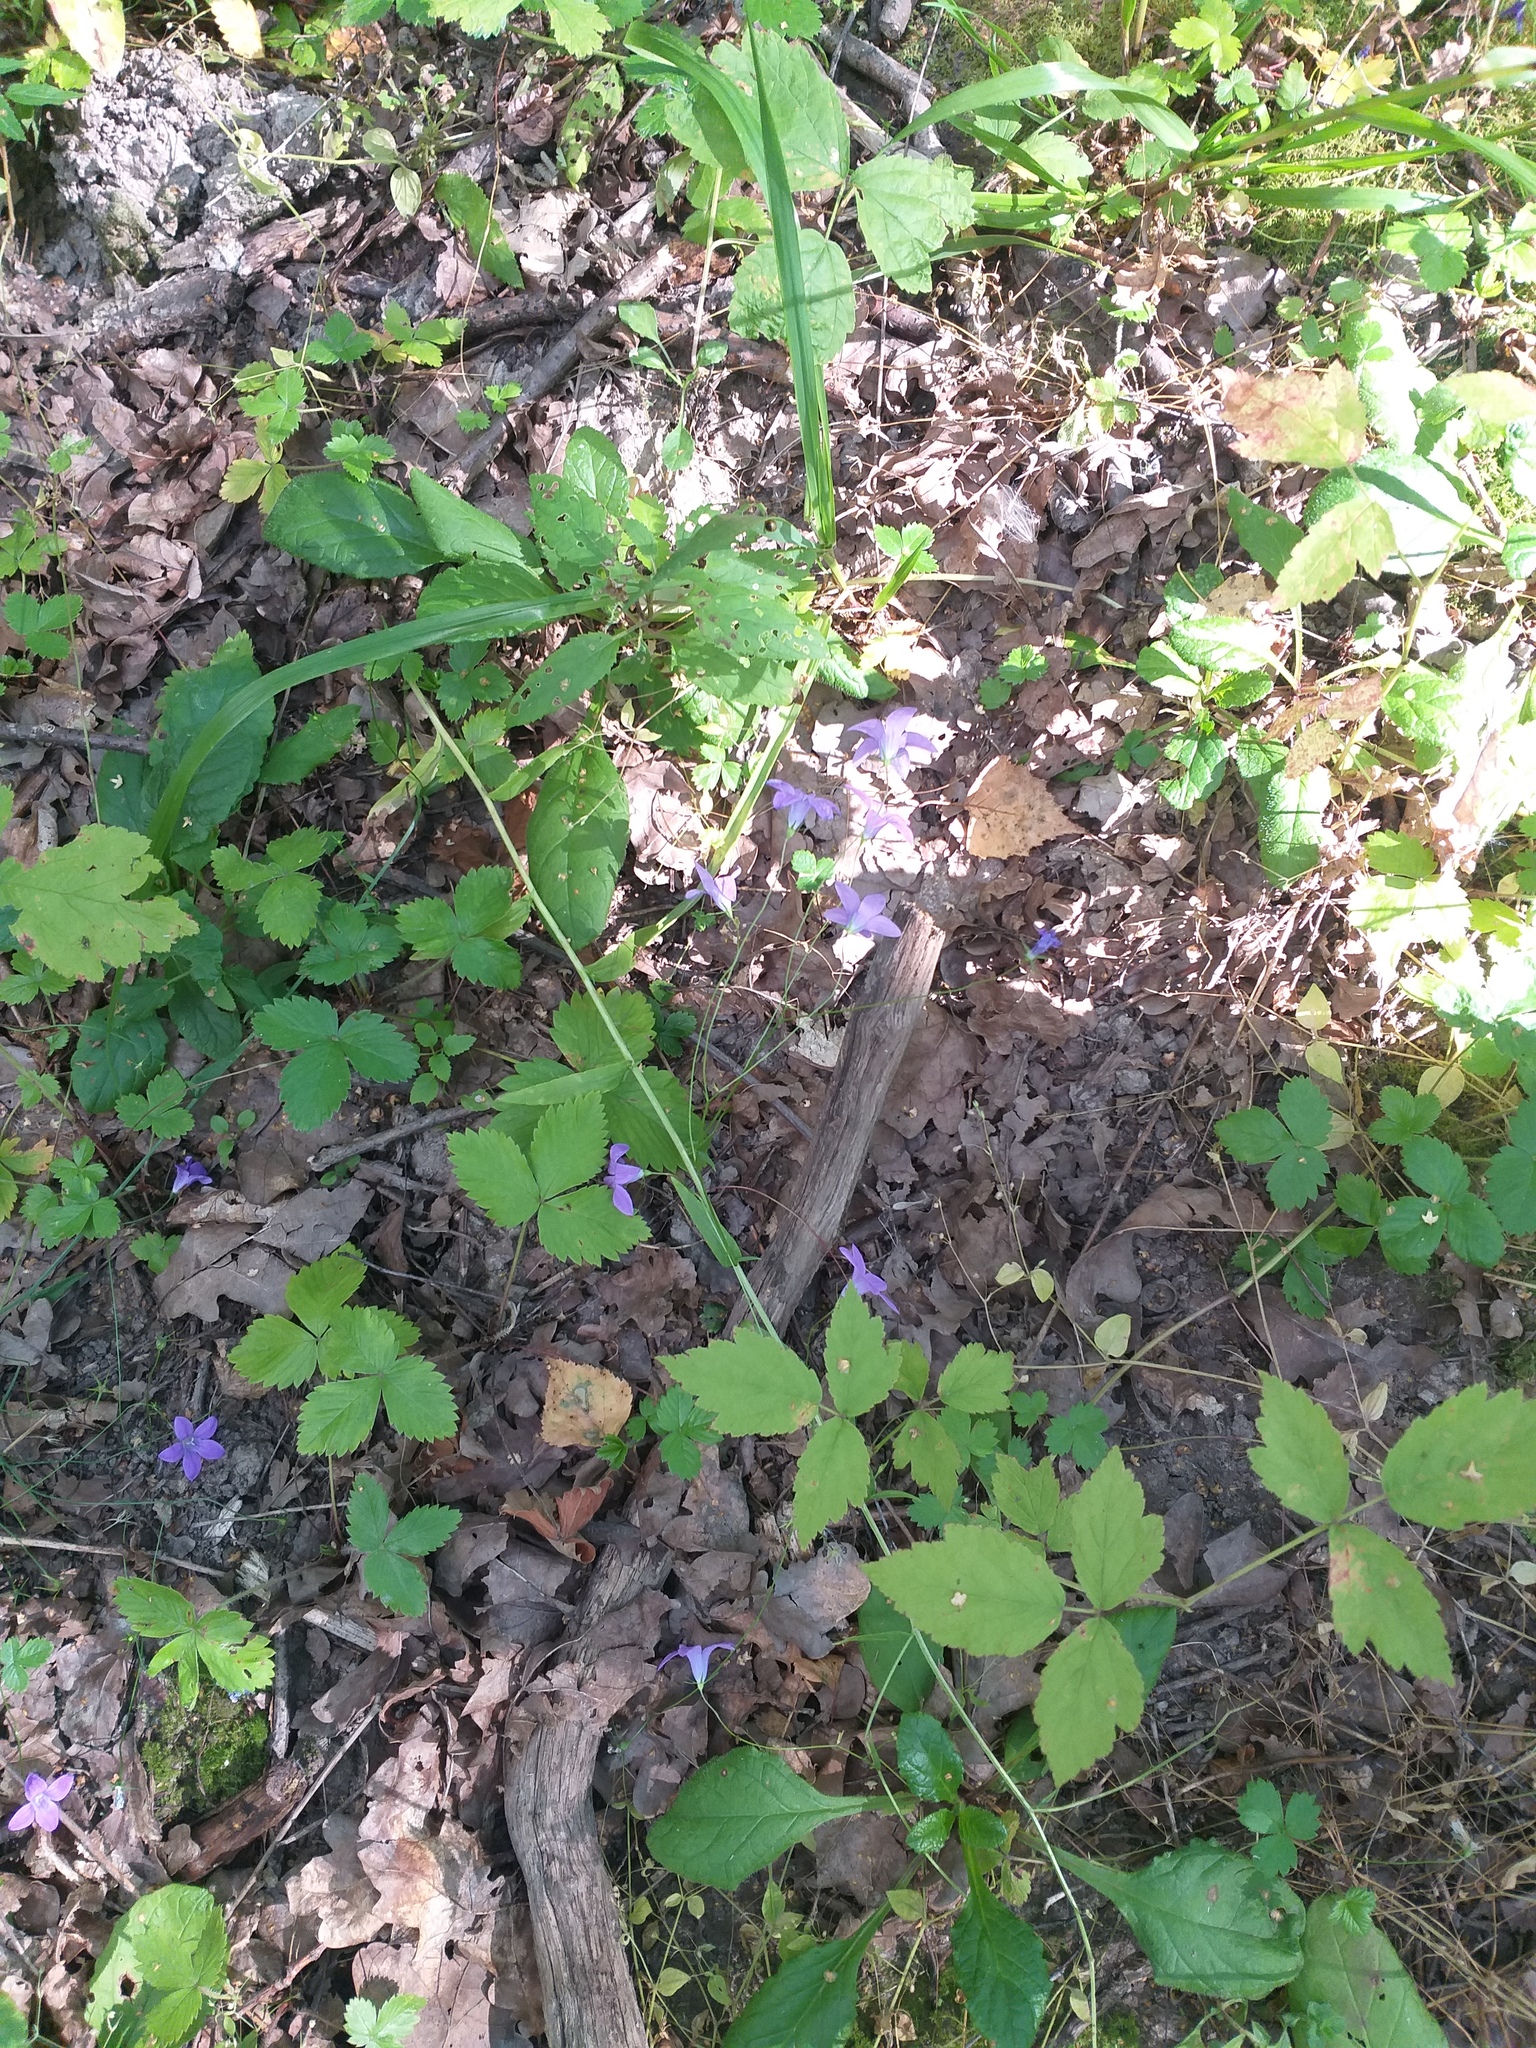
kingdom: Plantae
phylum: Tracheophyta
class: Magnoliopsida
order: Asterales
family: Campanulaceae
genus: Campanula
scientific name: Campanula patula
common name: Spreading bellflower
